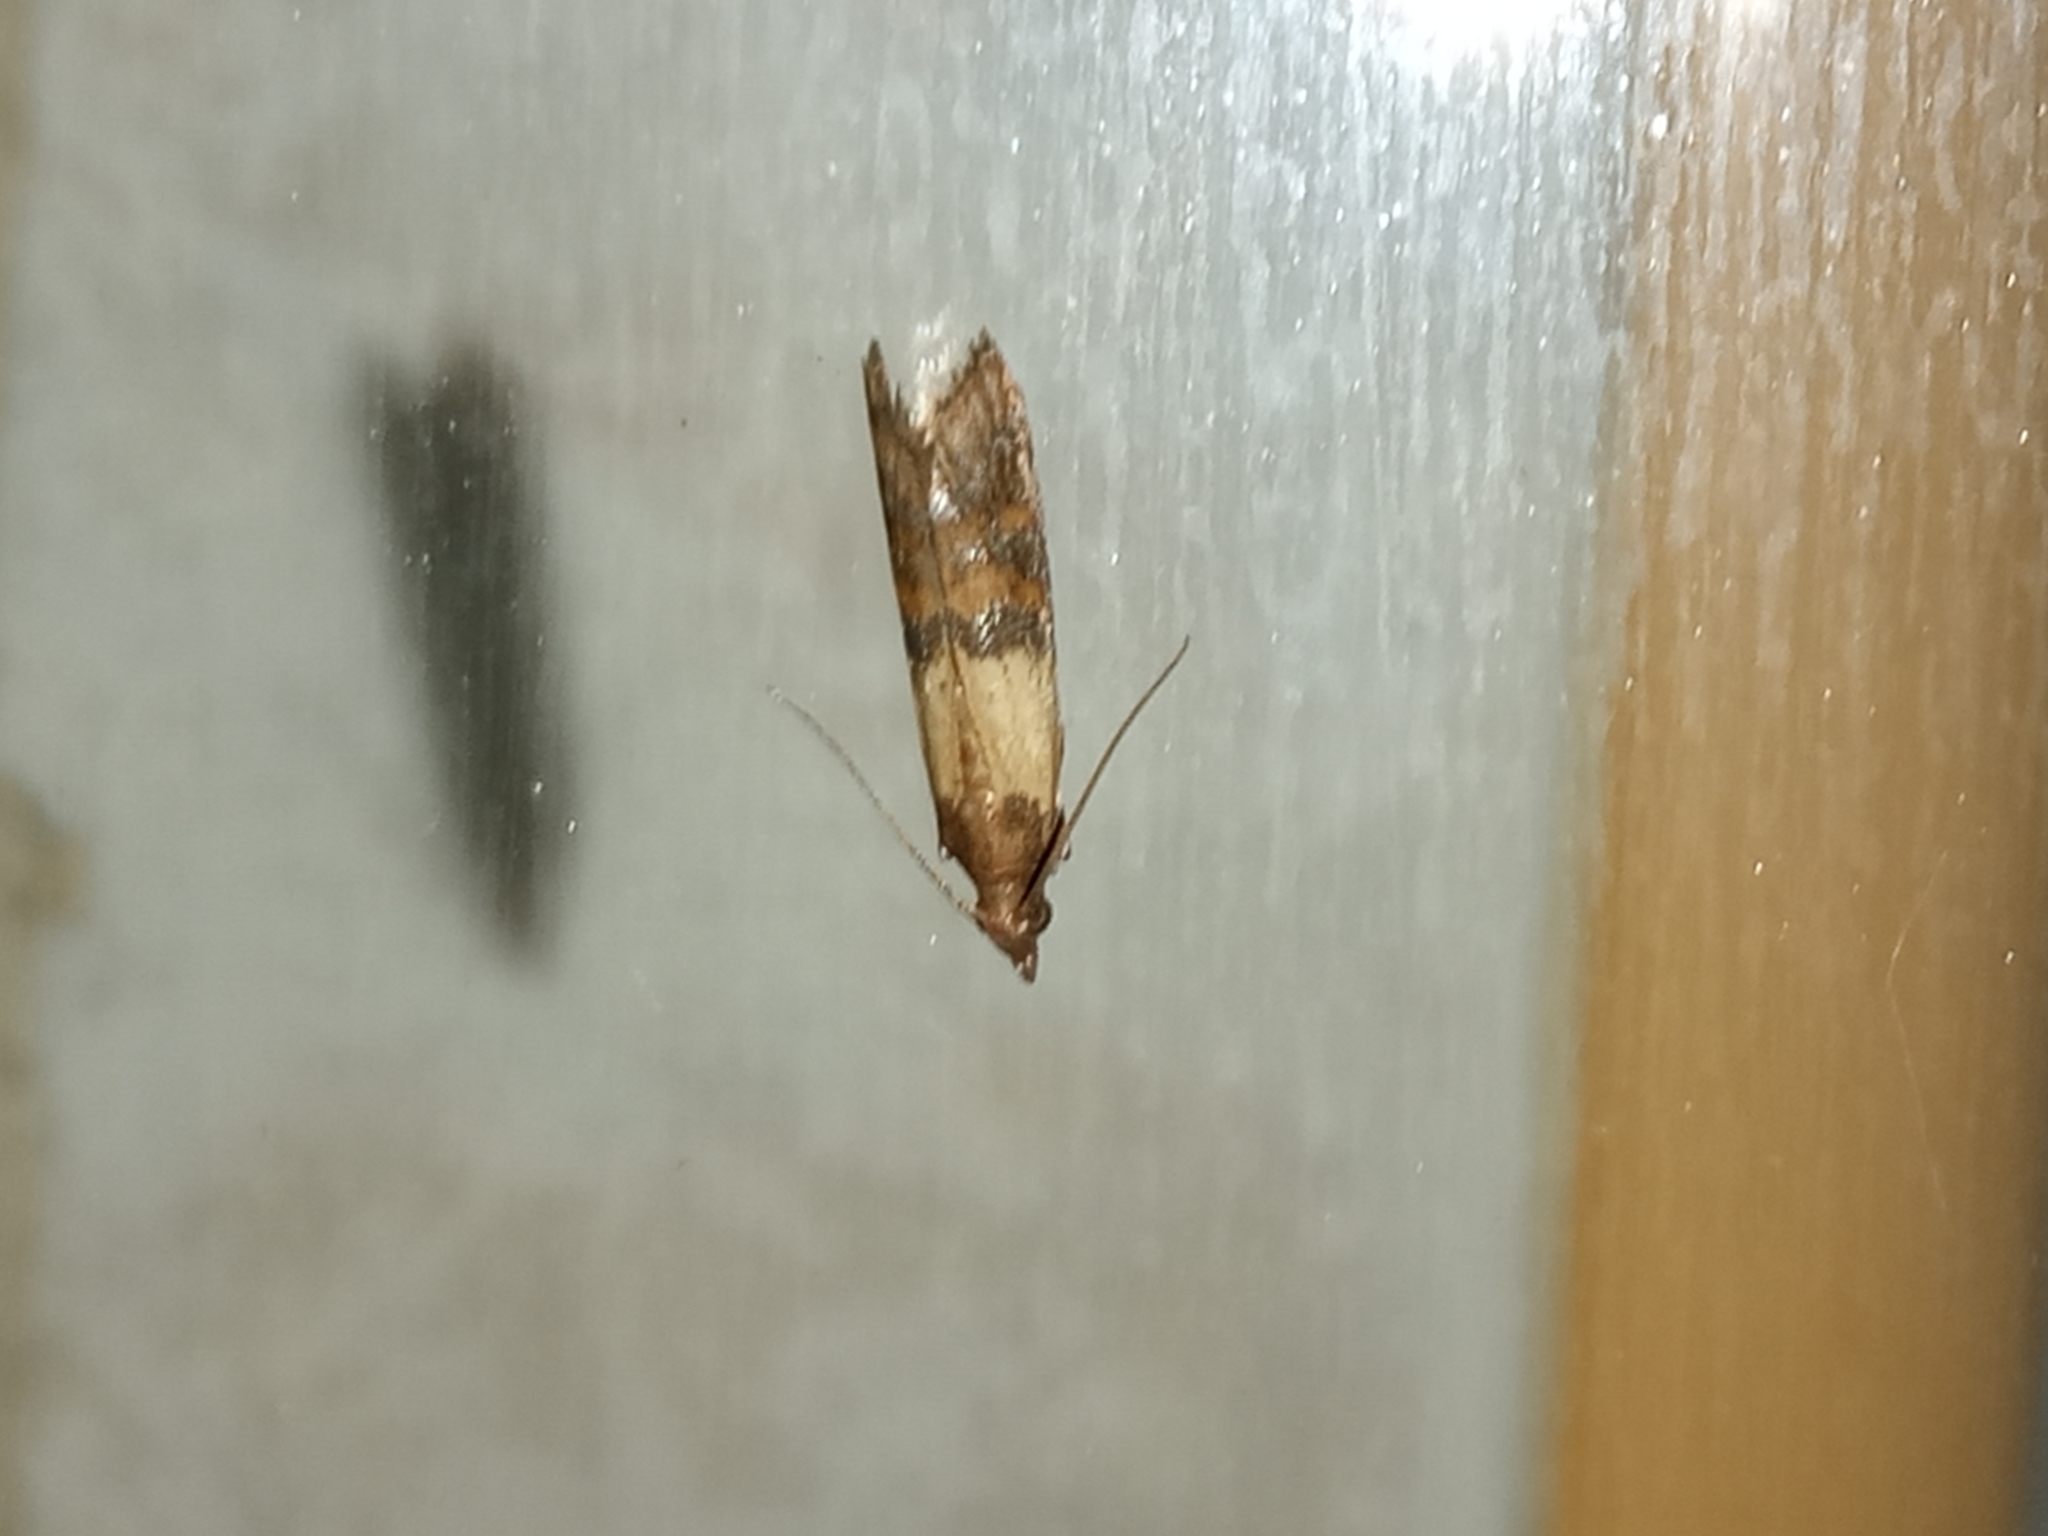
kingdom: Animalia
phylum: Arthropoda
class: Insecta
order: Lepidoptera
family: Pyralidae
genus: Plodia
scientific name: Plodia interpunctella
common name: Indian meal moth
